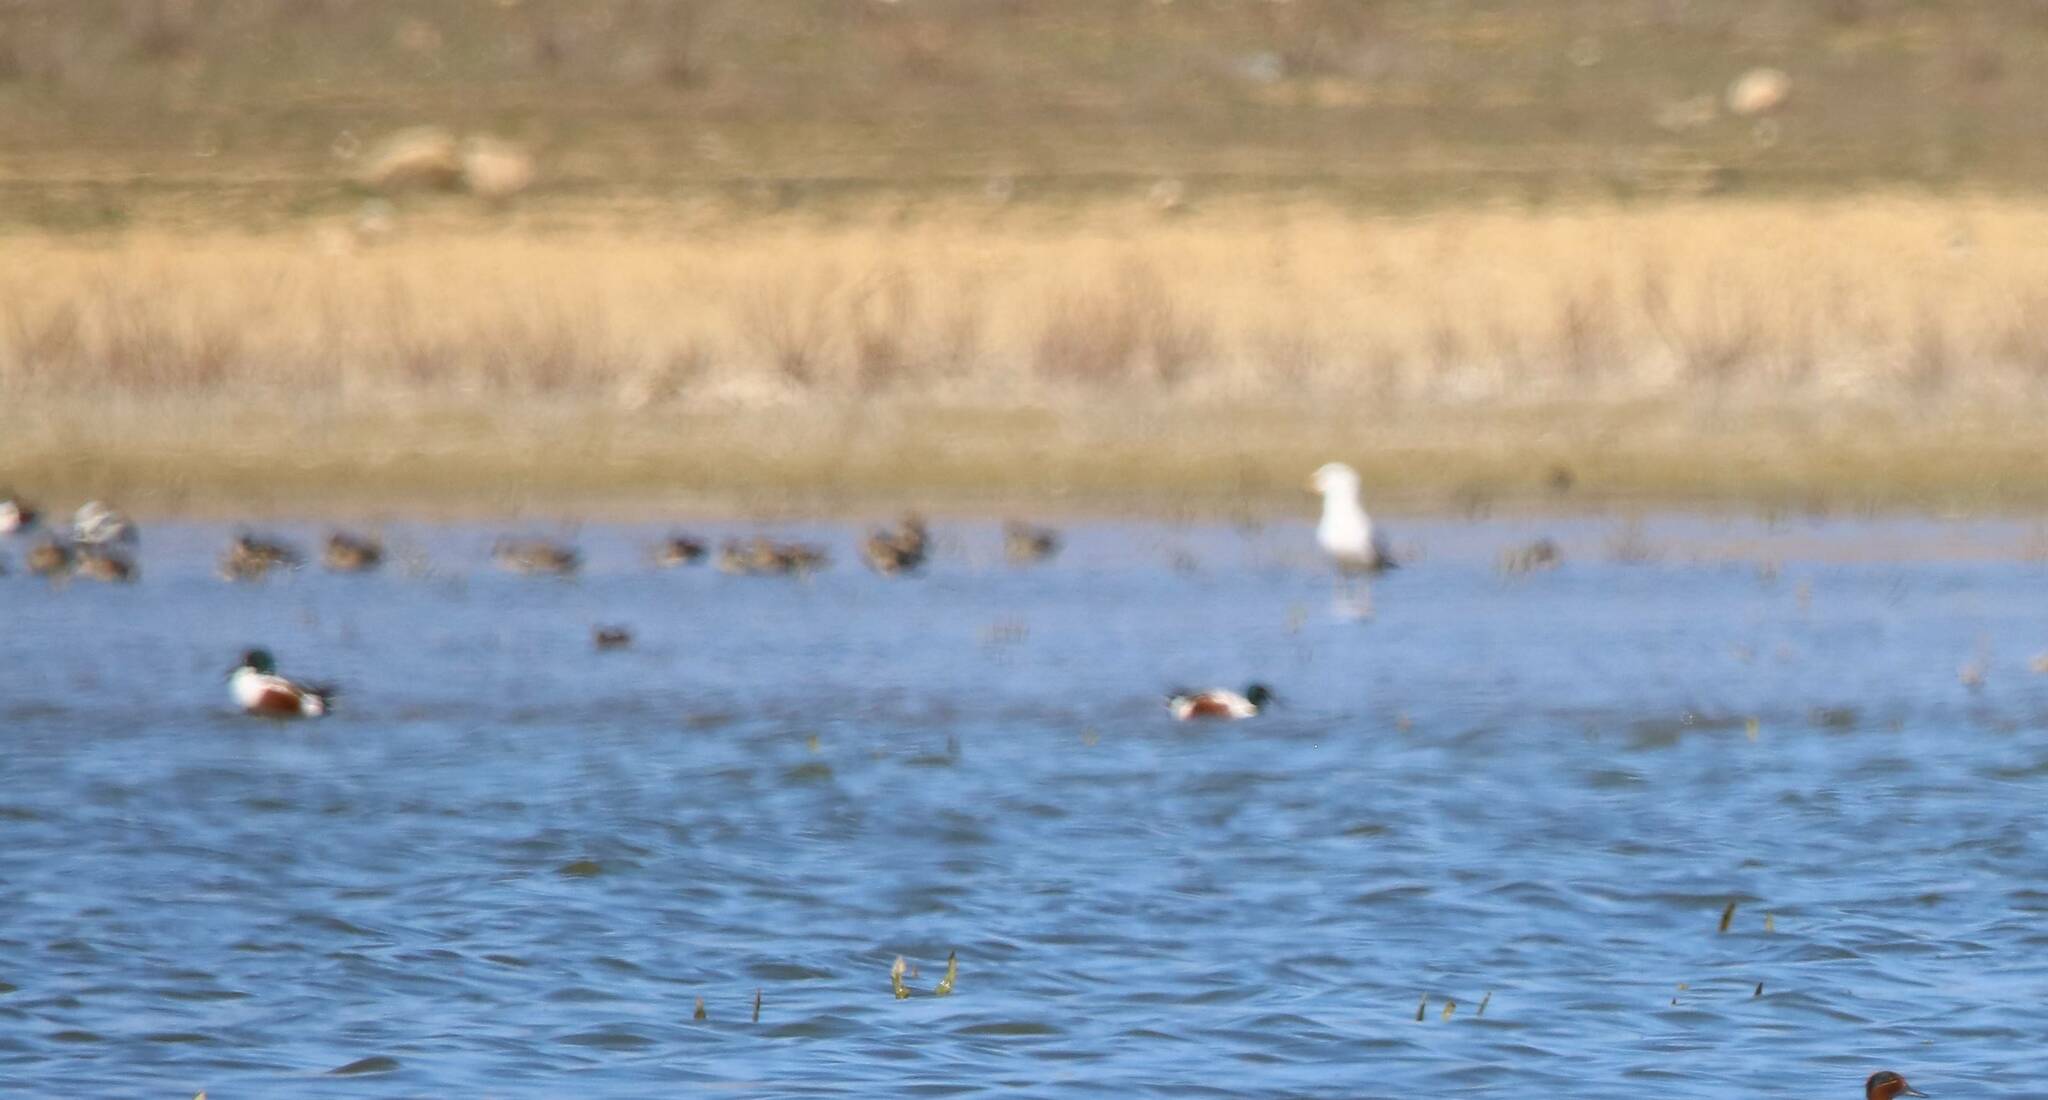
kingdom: Animalia
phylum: Chordata
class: Aves
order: Anseriformes
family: Anatidae
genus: Spatula
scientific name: Spatula clypeata
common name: Northern shoveler
